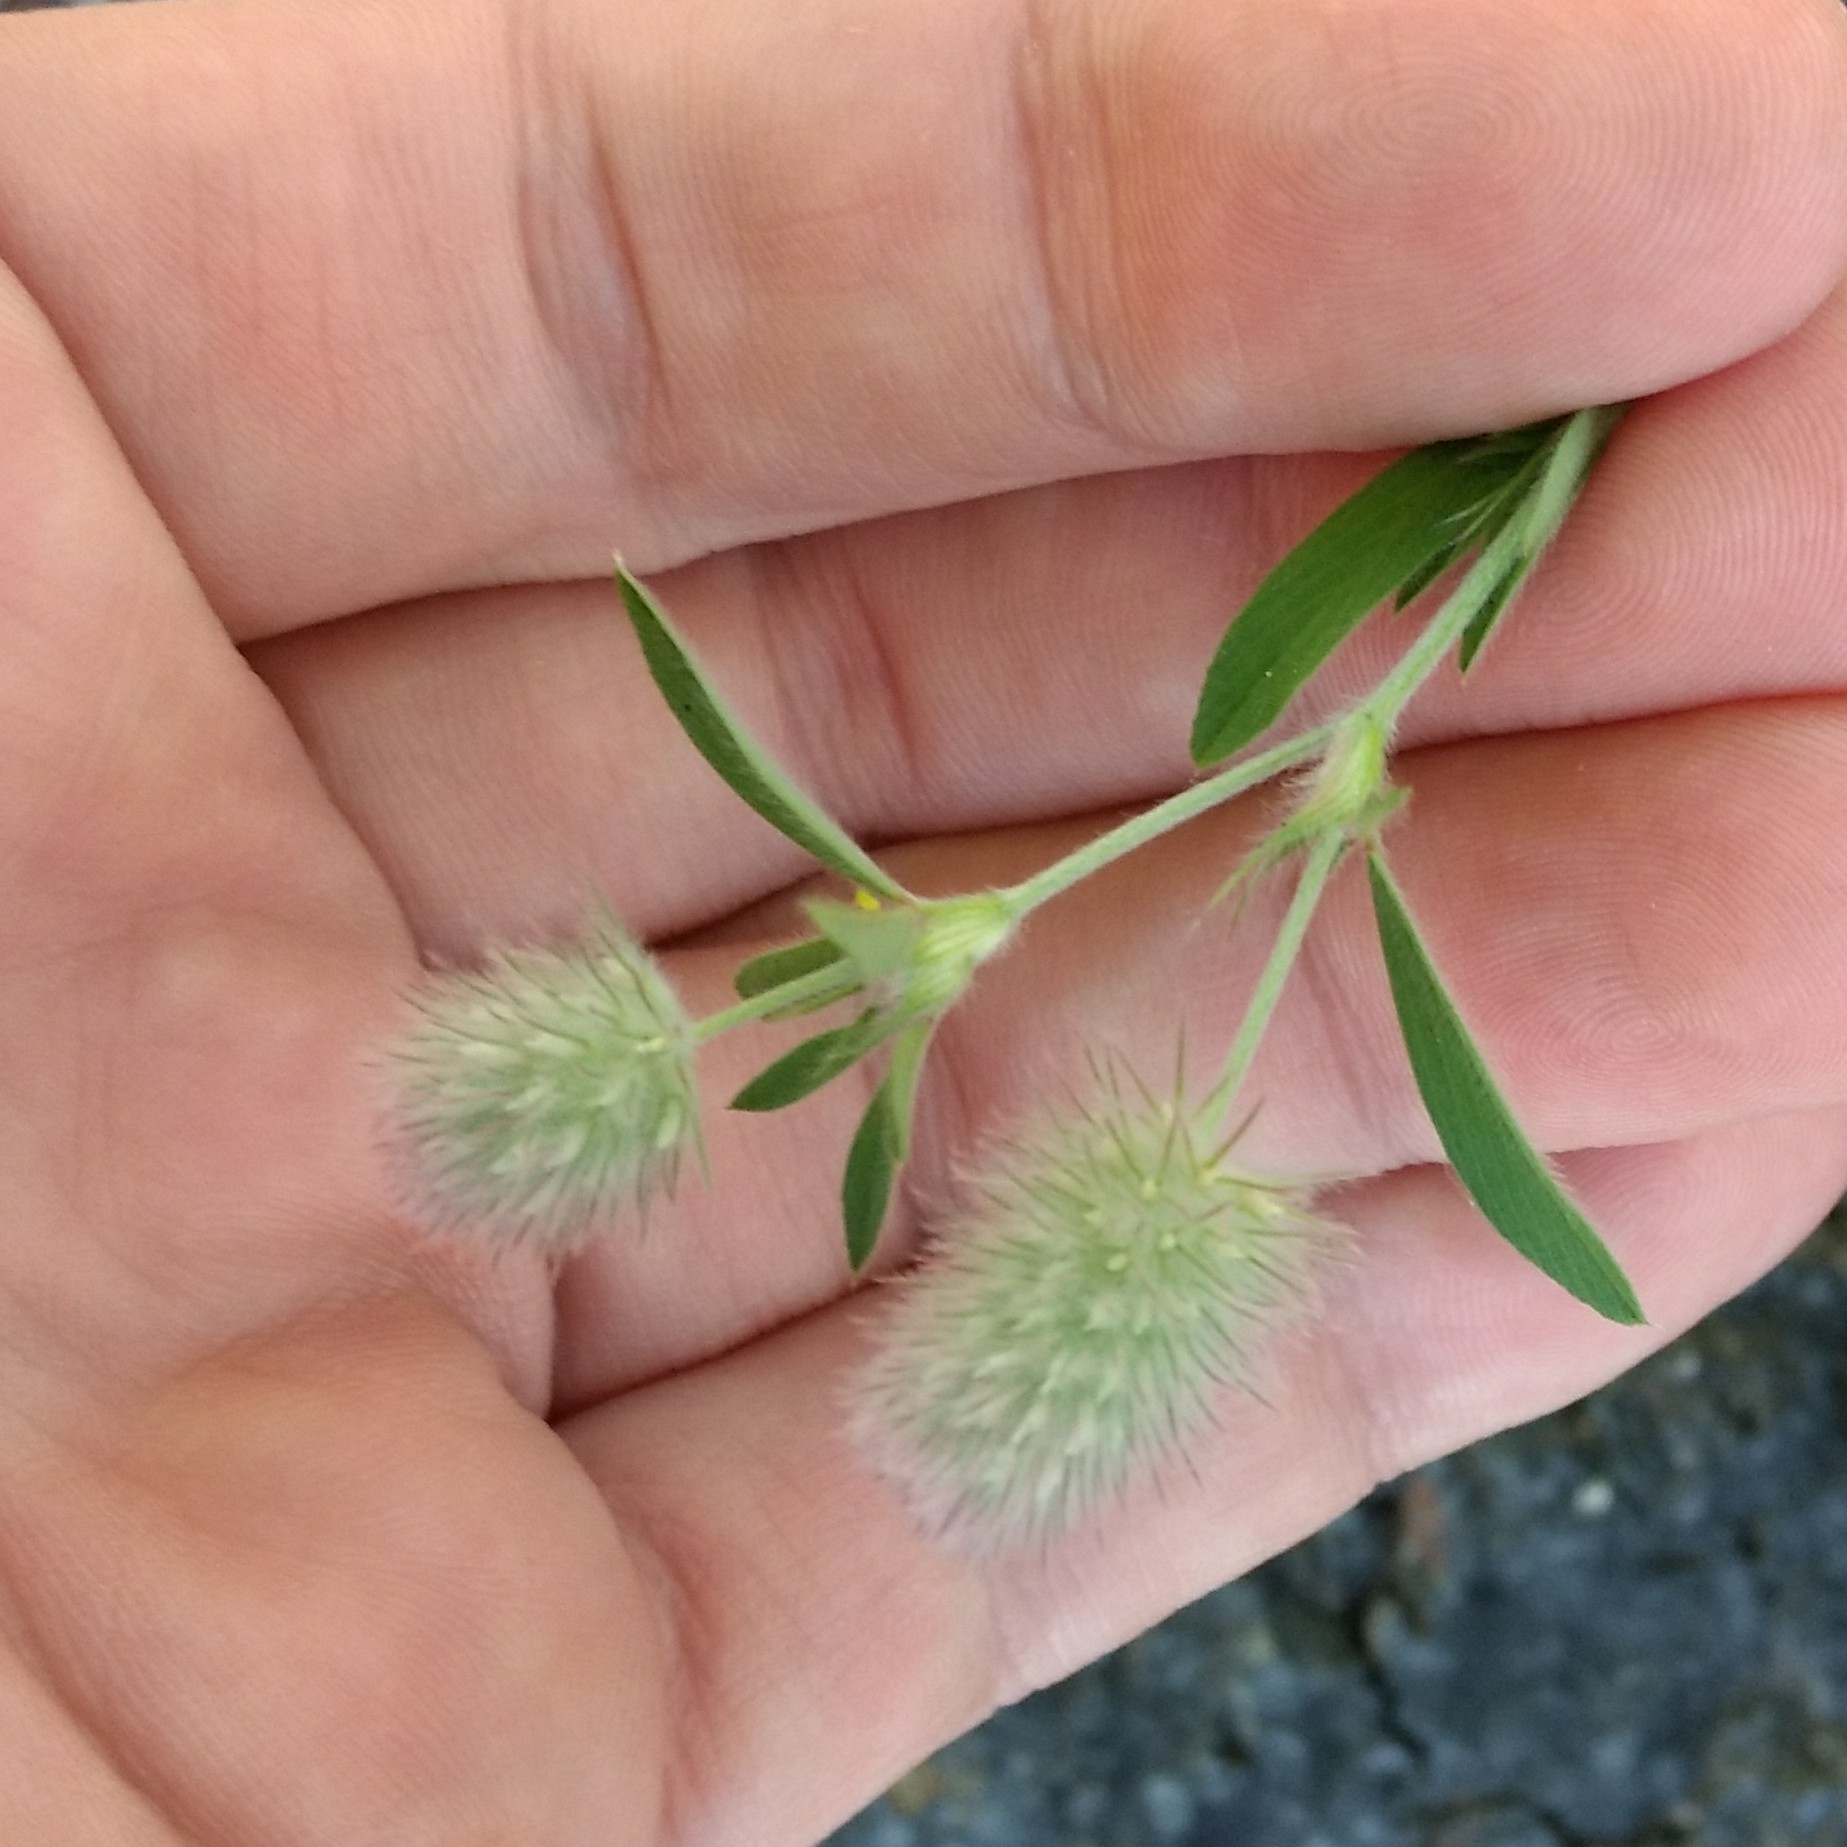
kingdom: Plantae
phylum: Tracheophyta
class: Magnoliopsida
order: Fabales
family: Fabaceae
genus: Trifolium
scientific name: Trifolium arvense
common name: Hare's-foot clover
